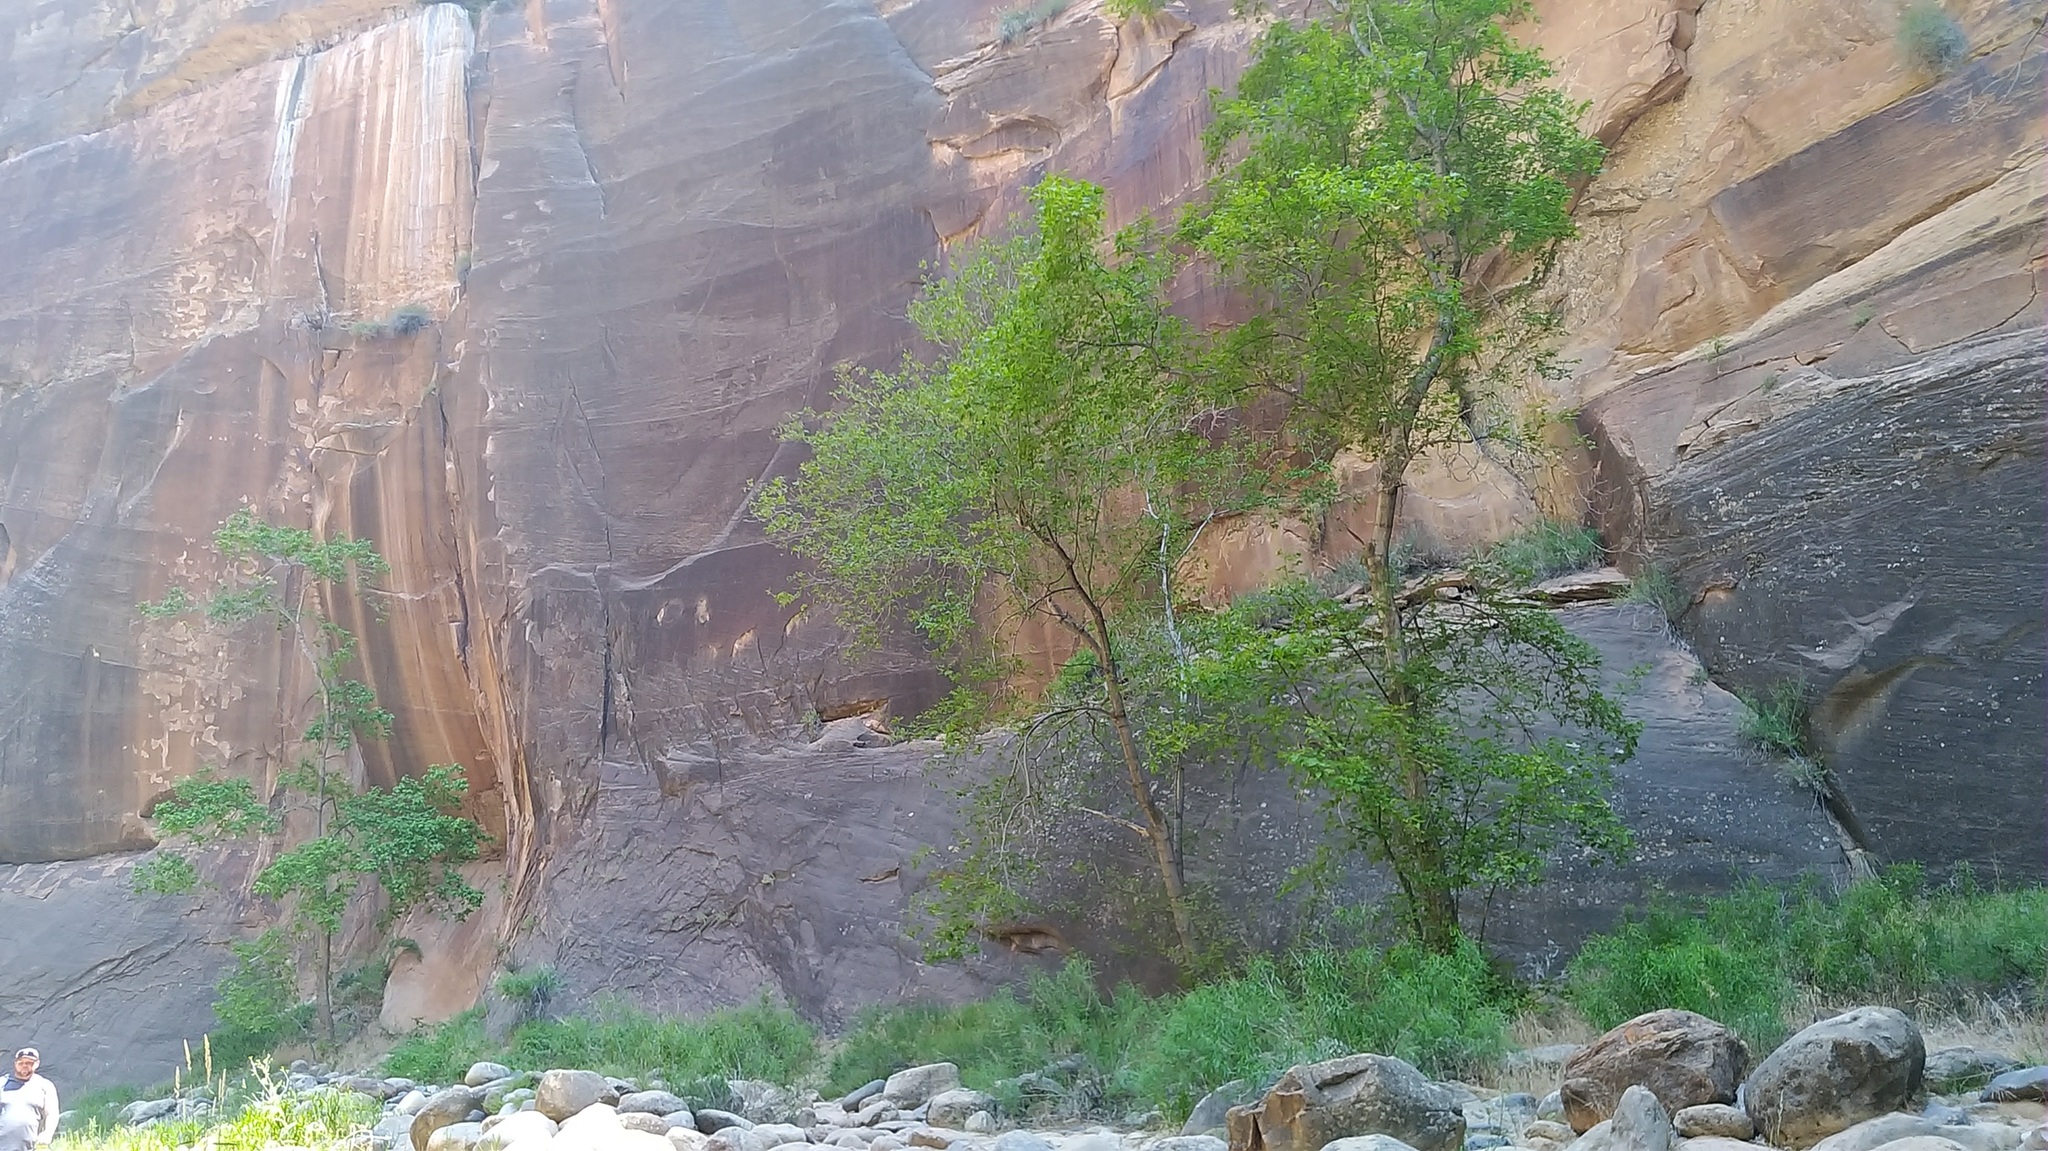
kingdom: Plantae
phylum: Tracheophyta
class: Magnoliopsida
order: Malpighiales
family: Salicaceae
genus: Populus
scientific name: Populus fremontii
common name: Fremont's cottonwood
